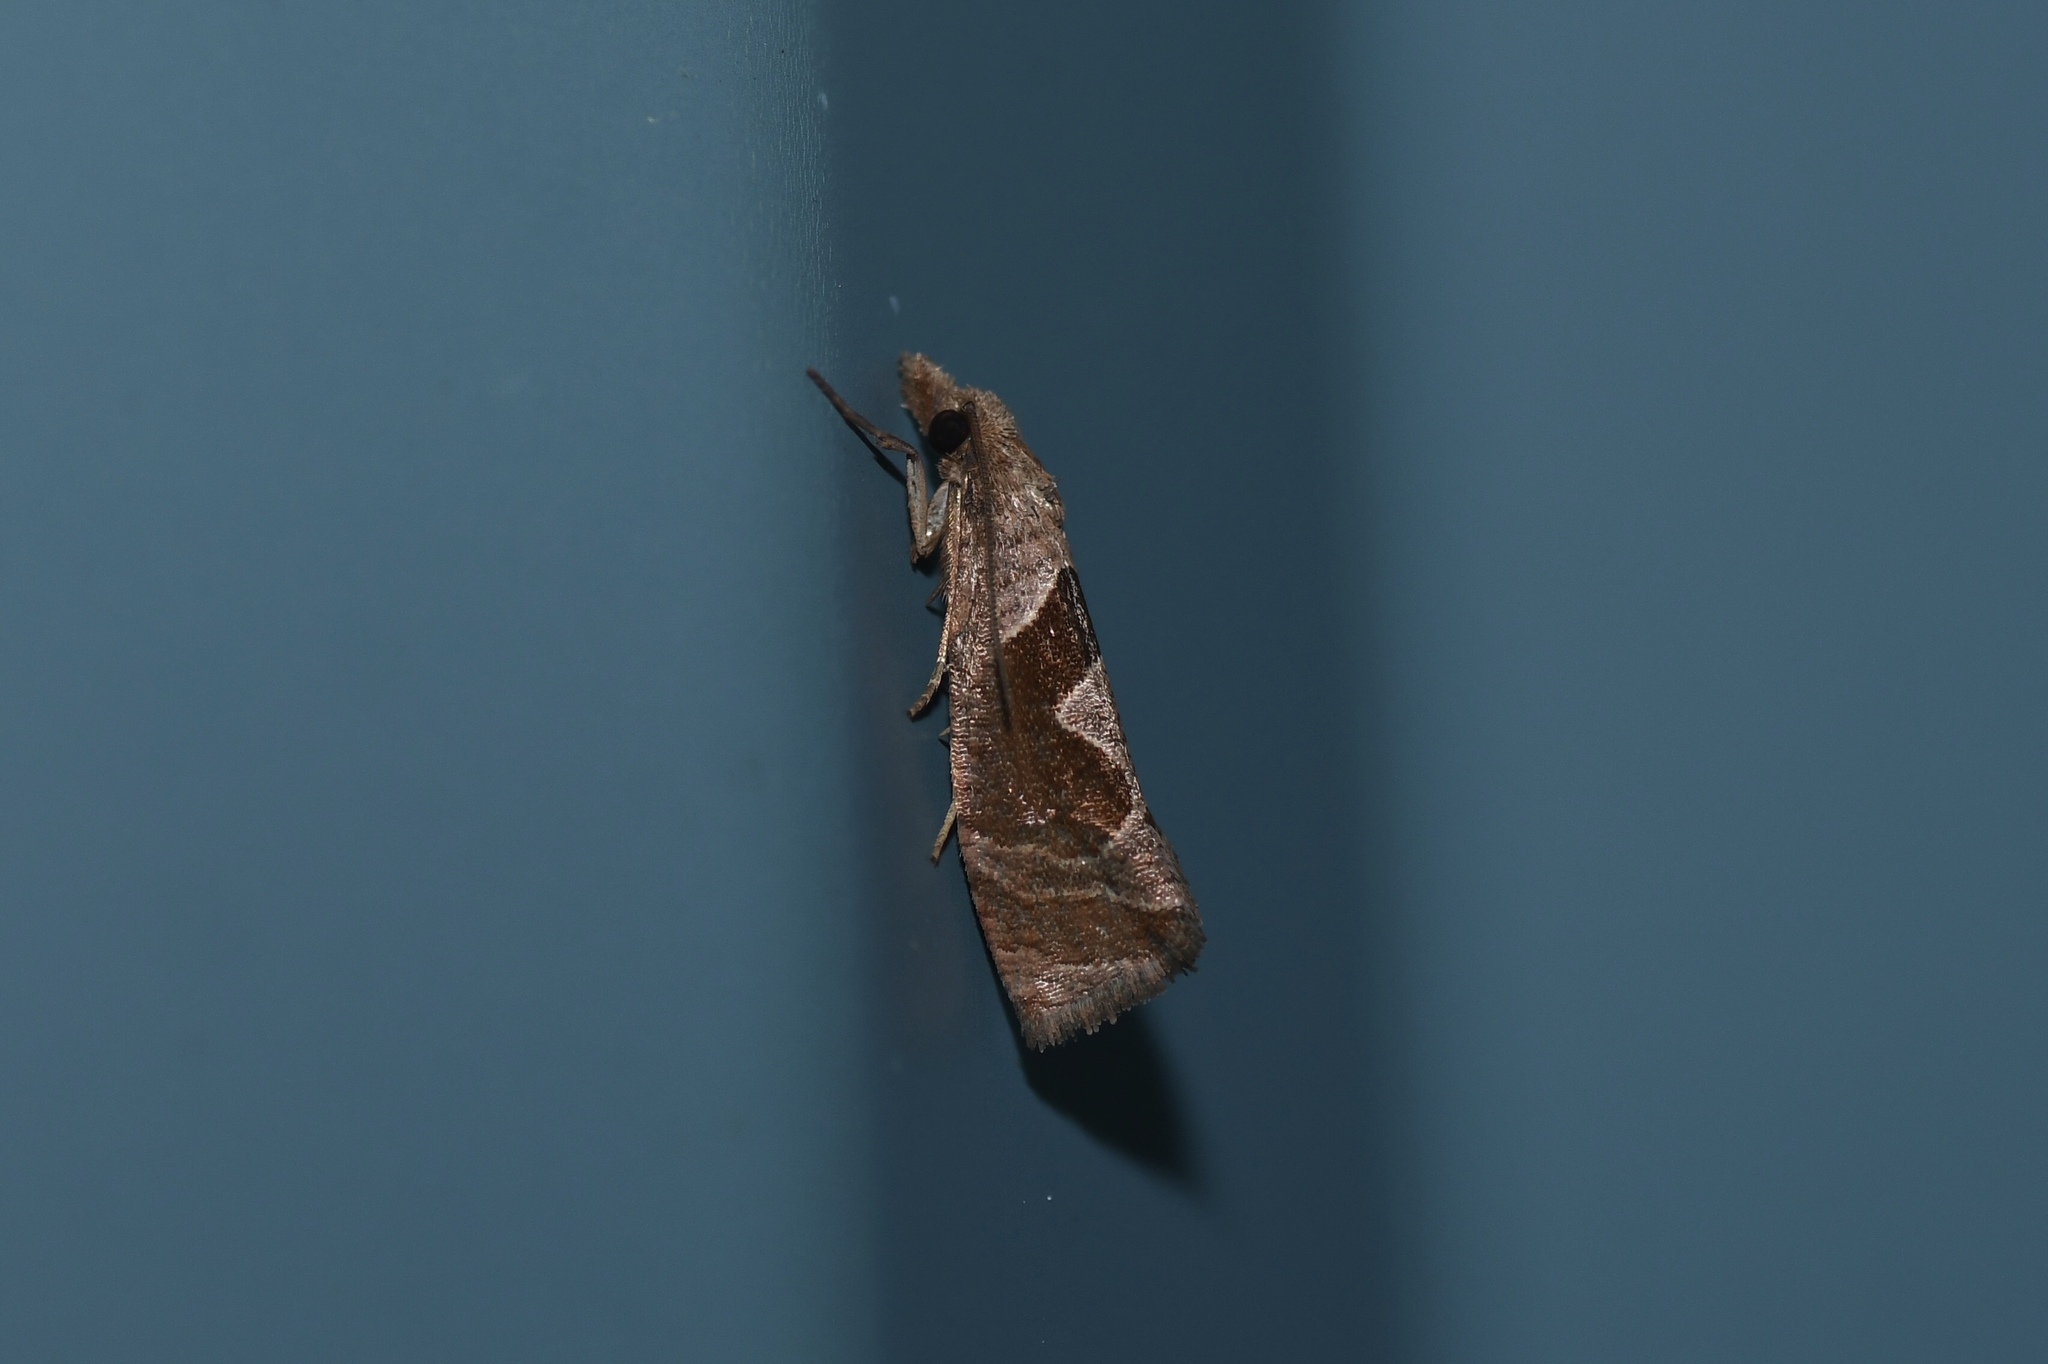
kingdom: Animalia
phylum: Arthropoda
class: Insecta
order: Lepidoptera
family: Tortricidae
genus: Pelochrista
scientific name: Pelochrista similiana
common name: Similar eucosma
